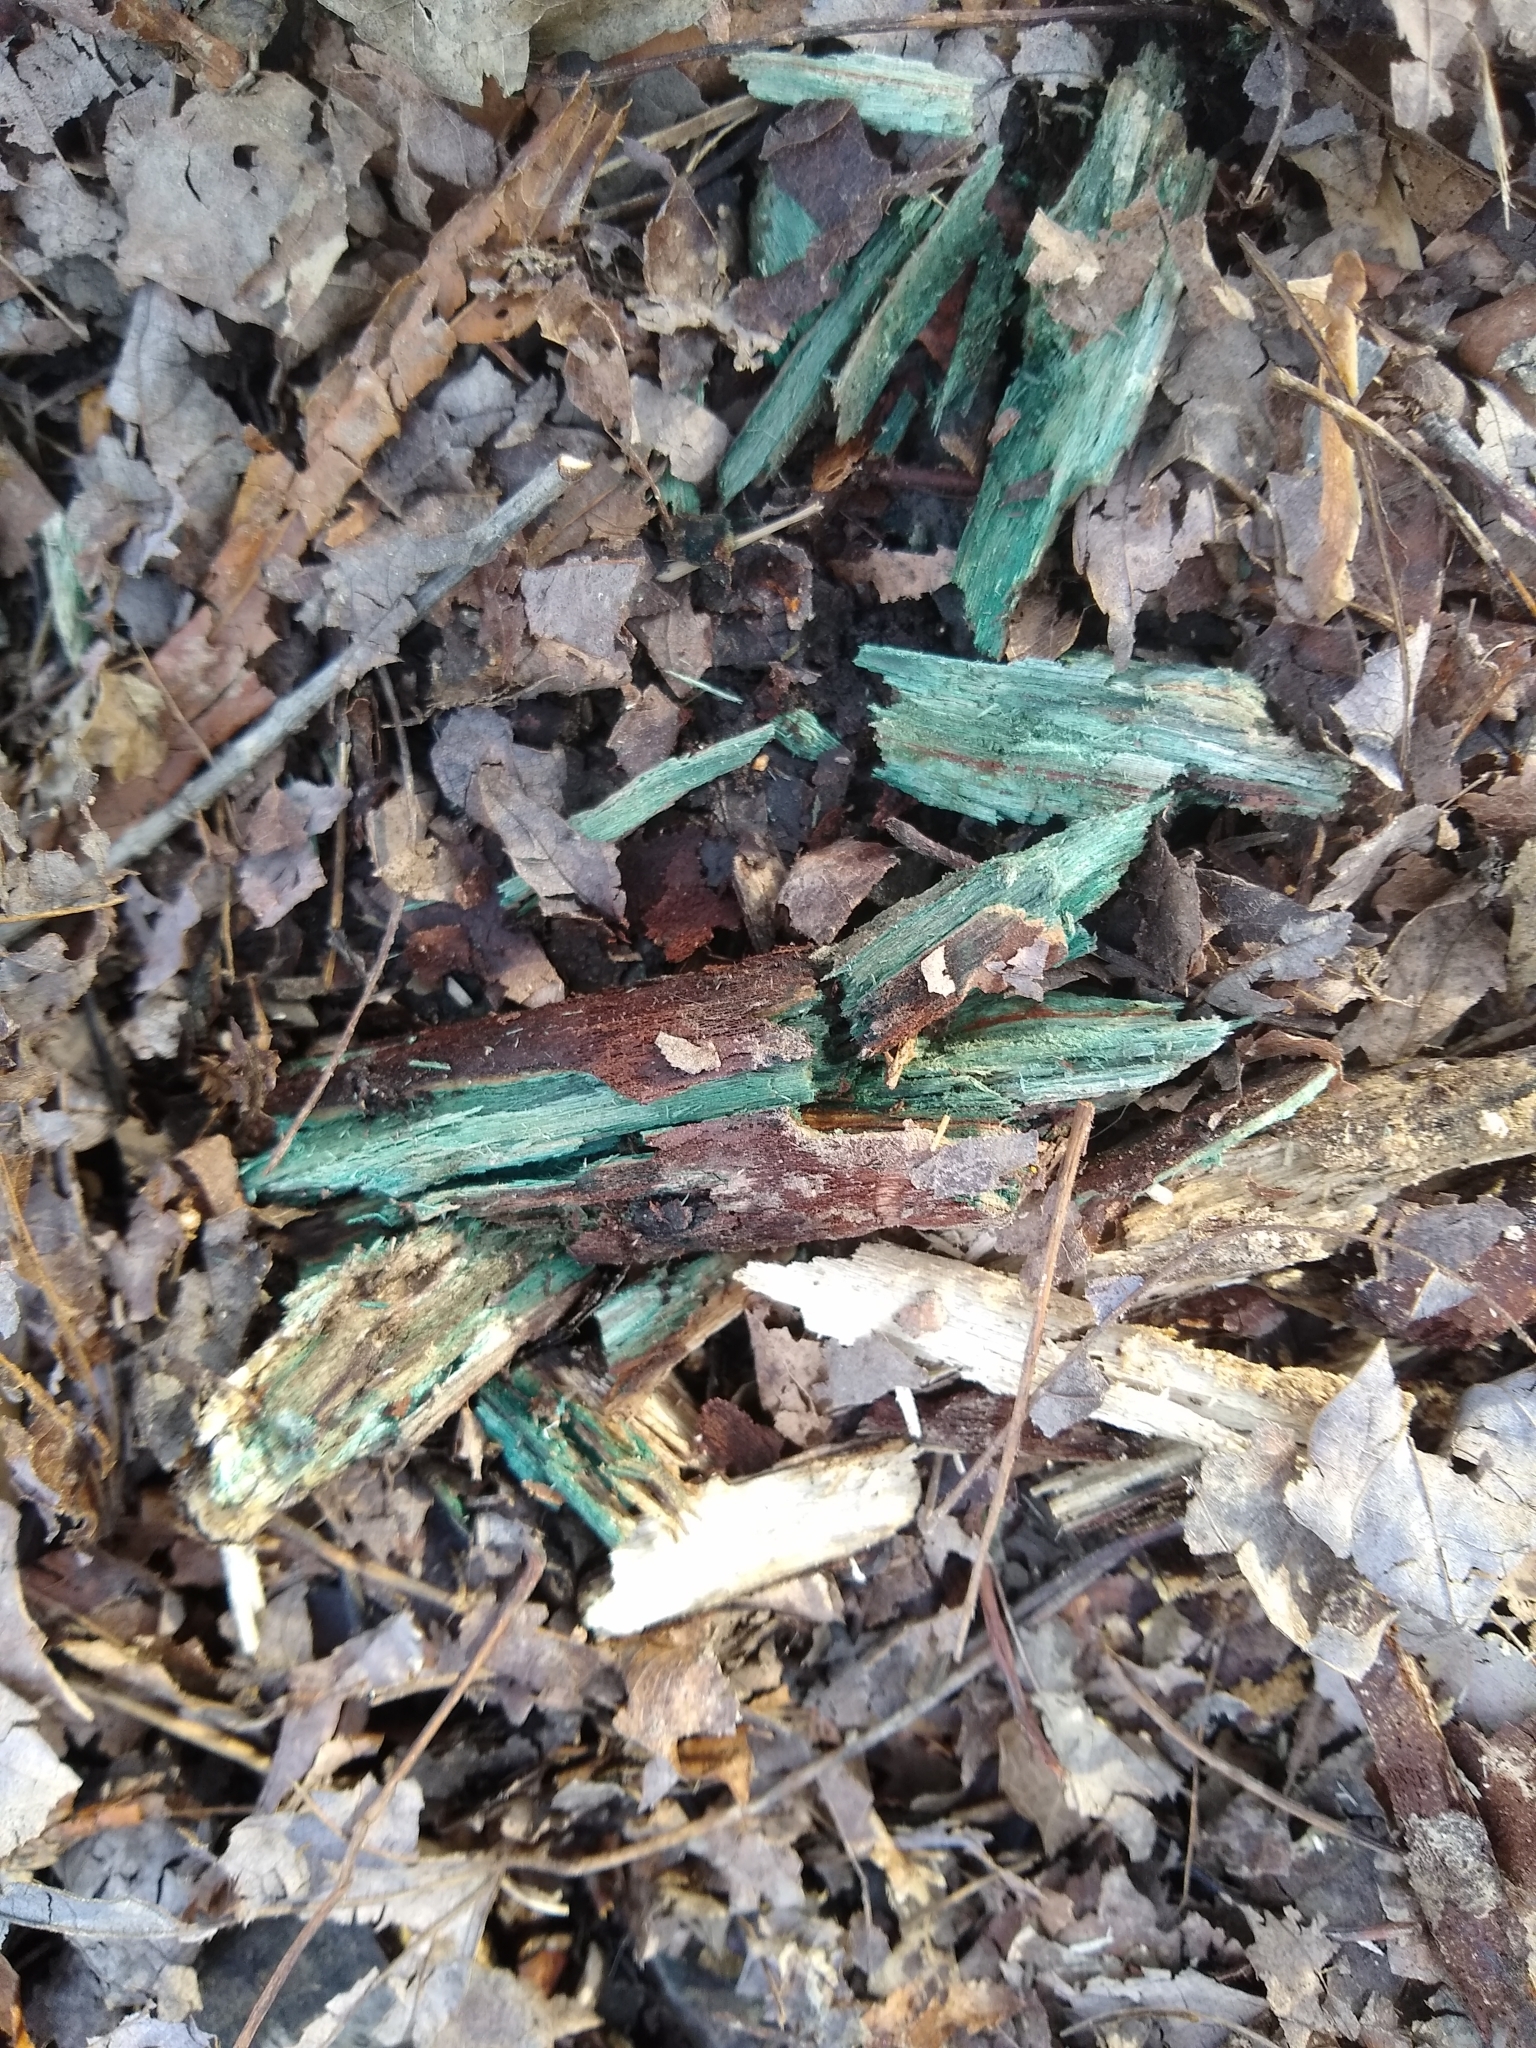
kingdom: Fungi
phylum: Ascomycota
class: Leotiomycetes
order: Helotiales
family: Chlorociboriaceae
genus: Chlorociboria
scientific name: Chlorociboria
